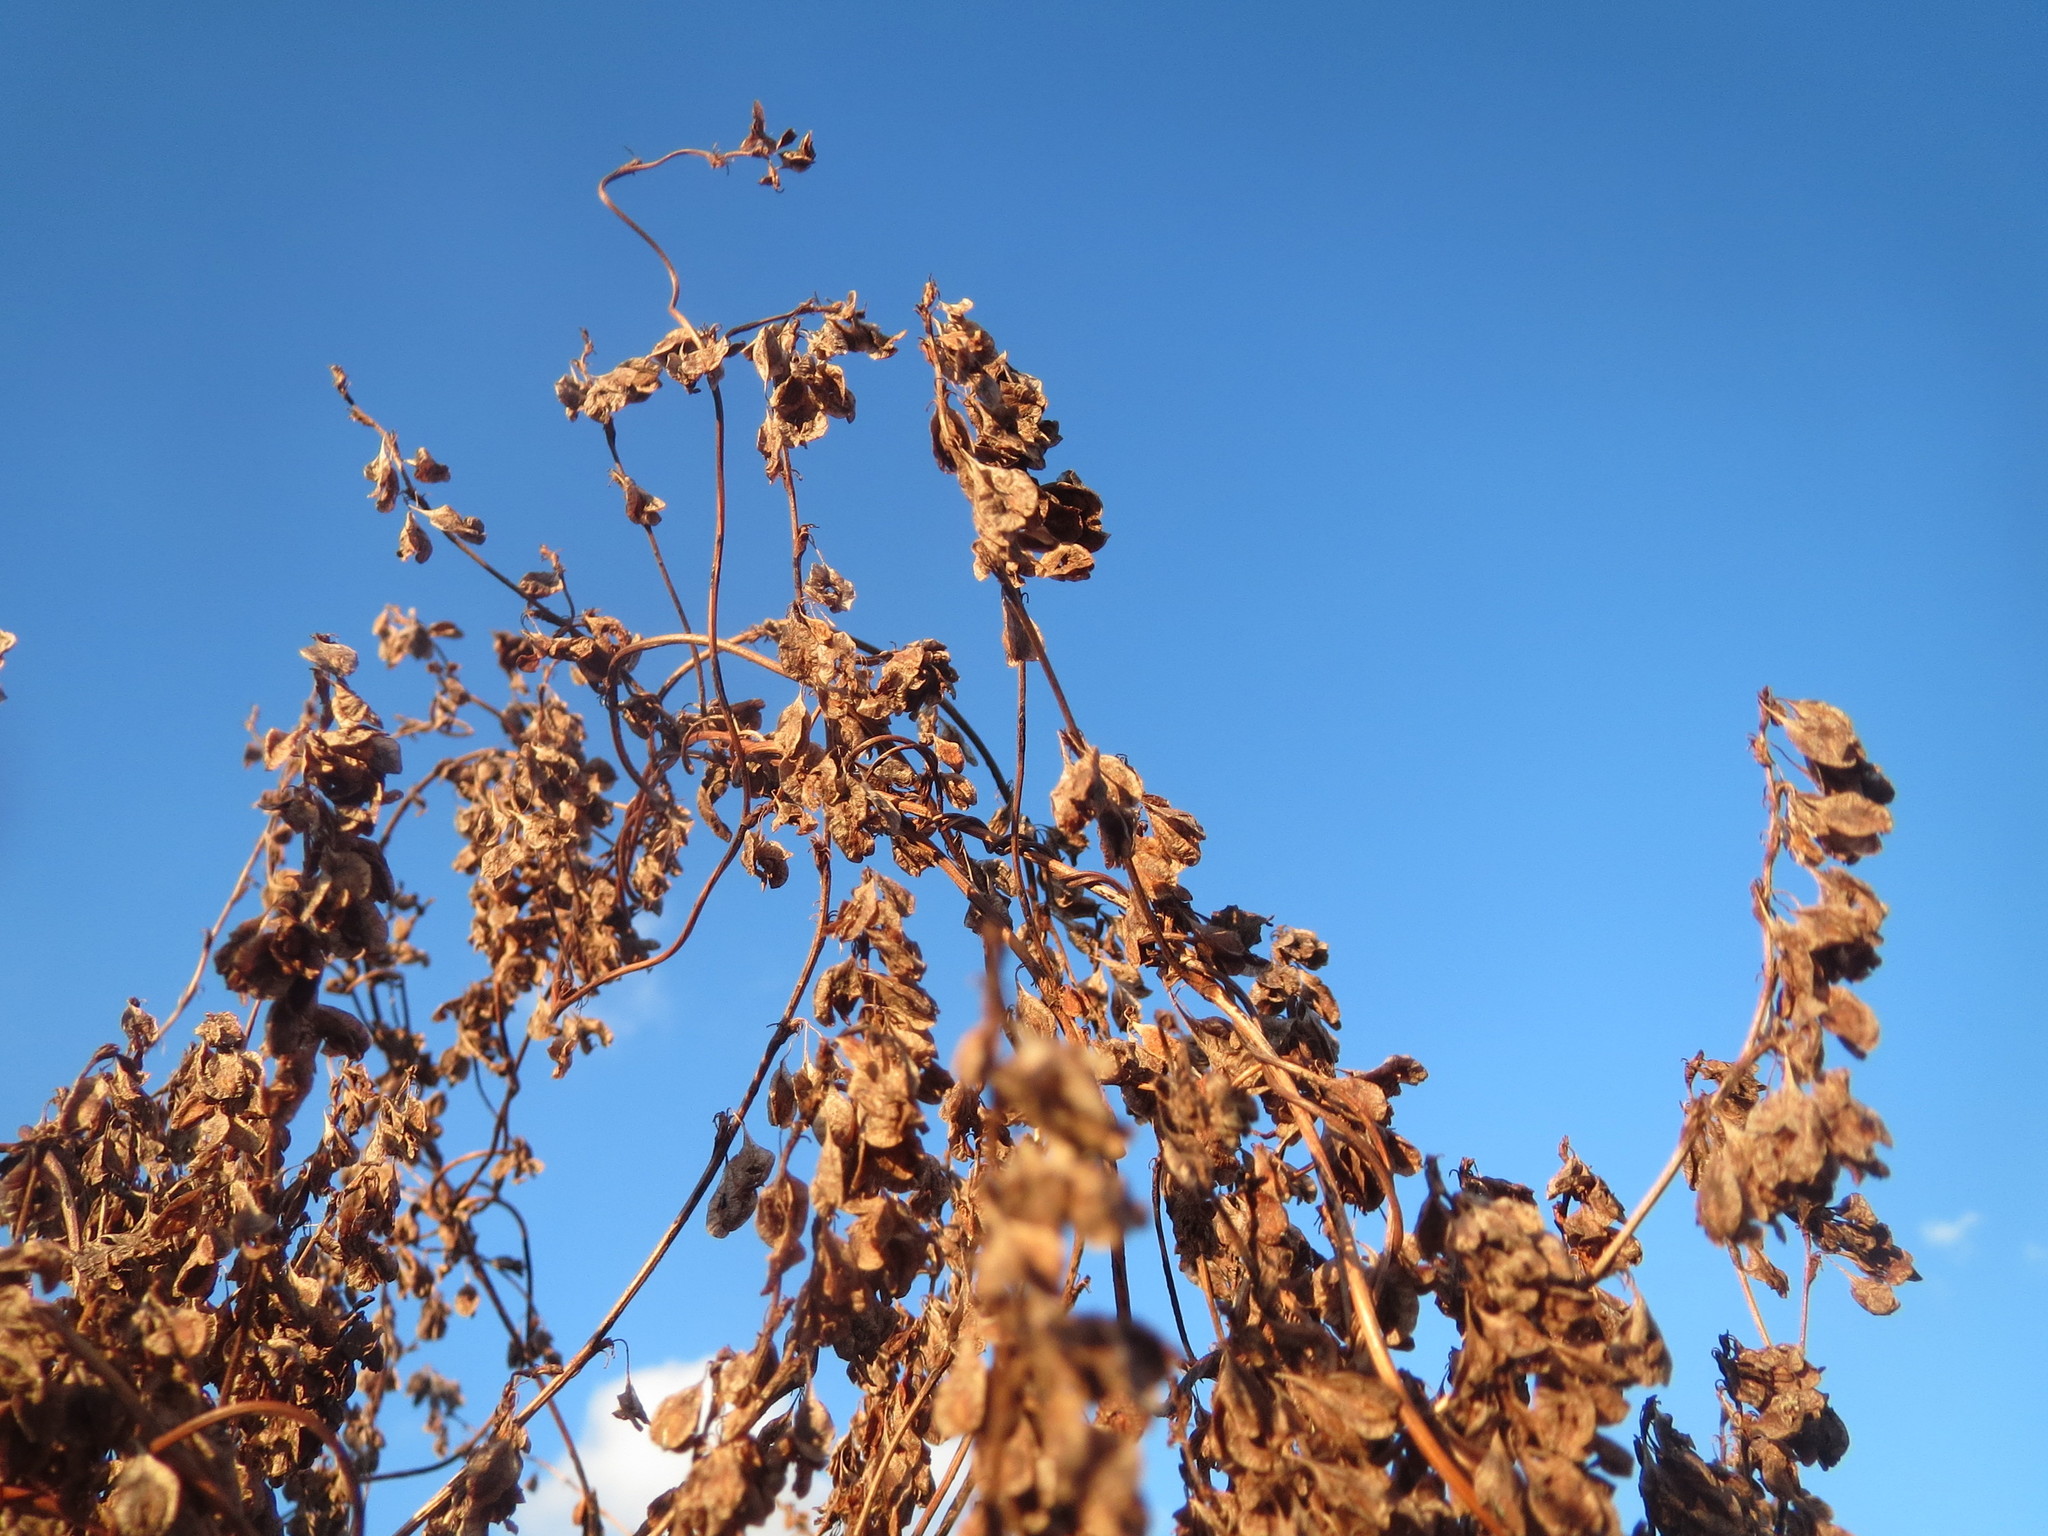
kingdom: Plantae
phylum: Tracheophyta
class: Magnoliopsida
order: Caryophyllales
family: Polygonaceae
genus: Fallopia
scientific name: Fallopia baldschuanica
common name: Russian-vine
